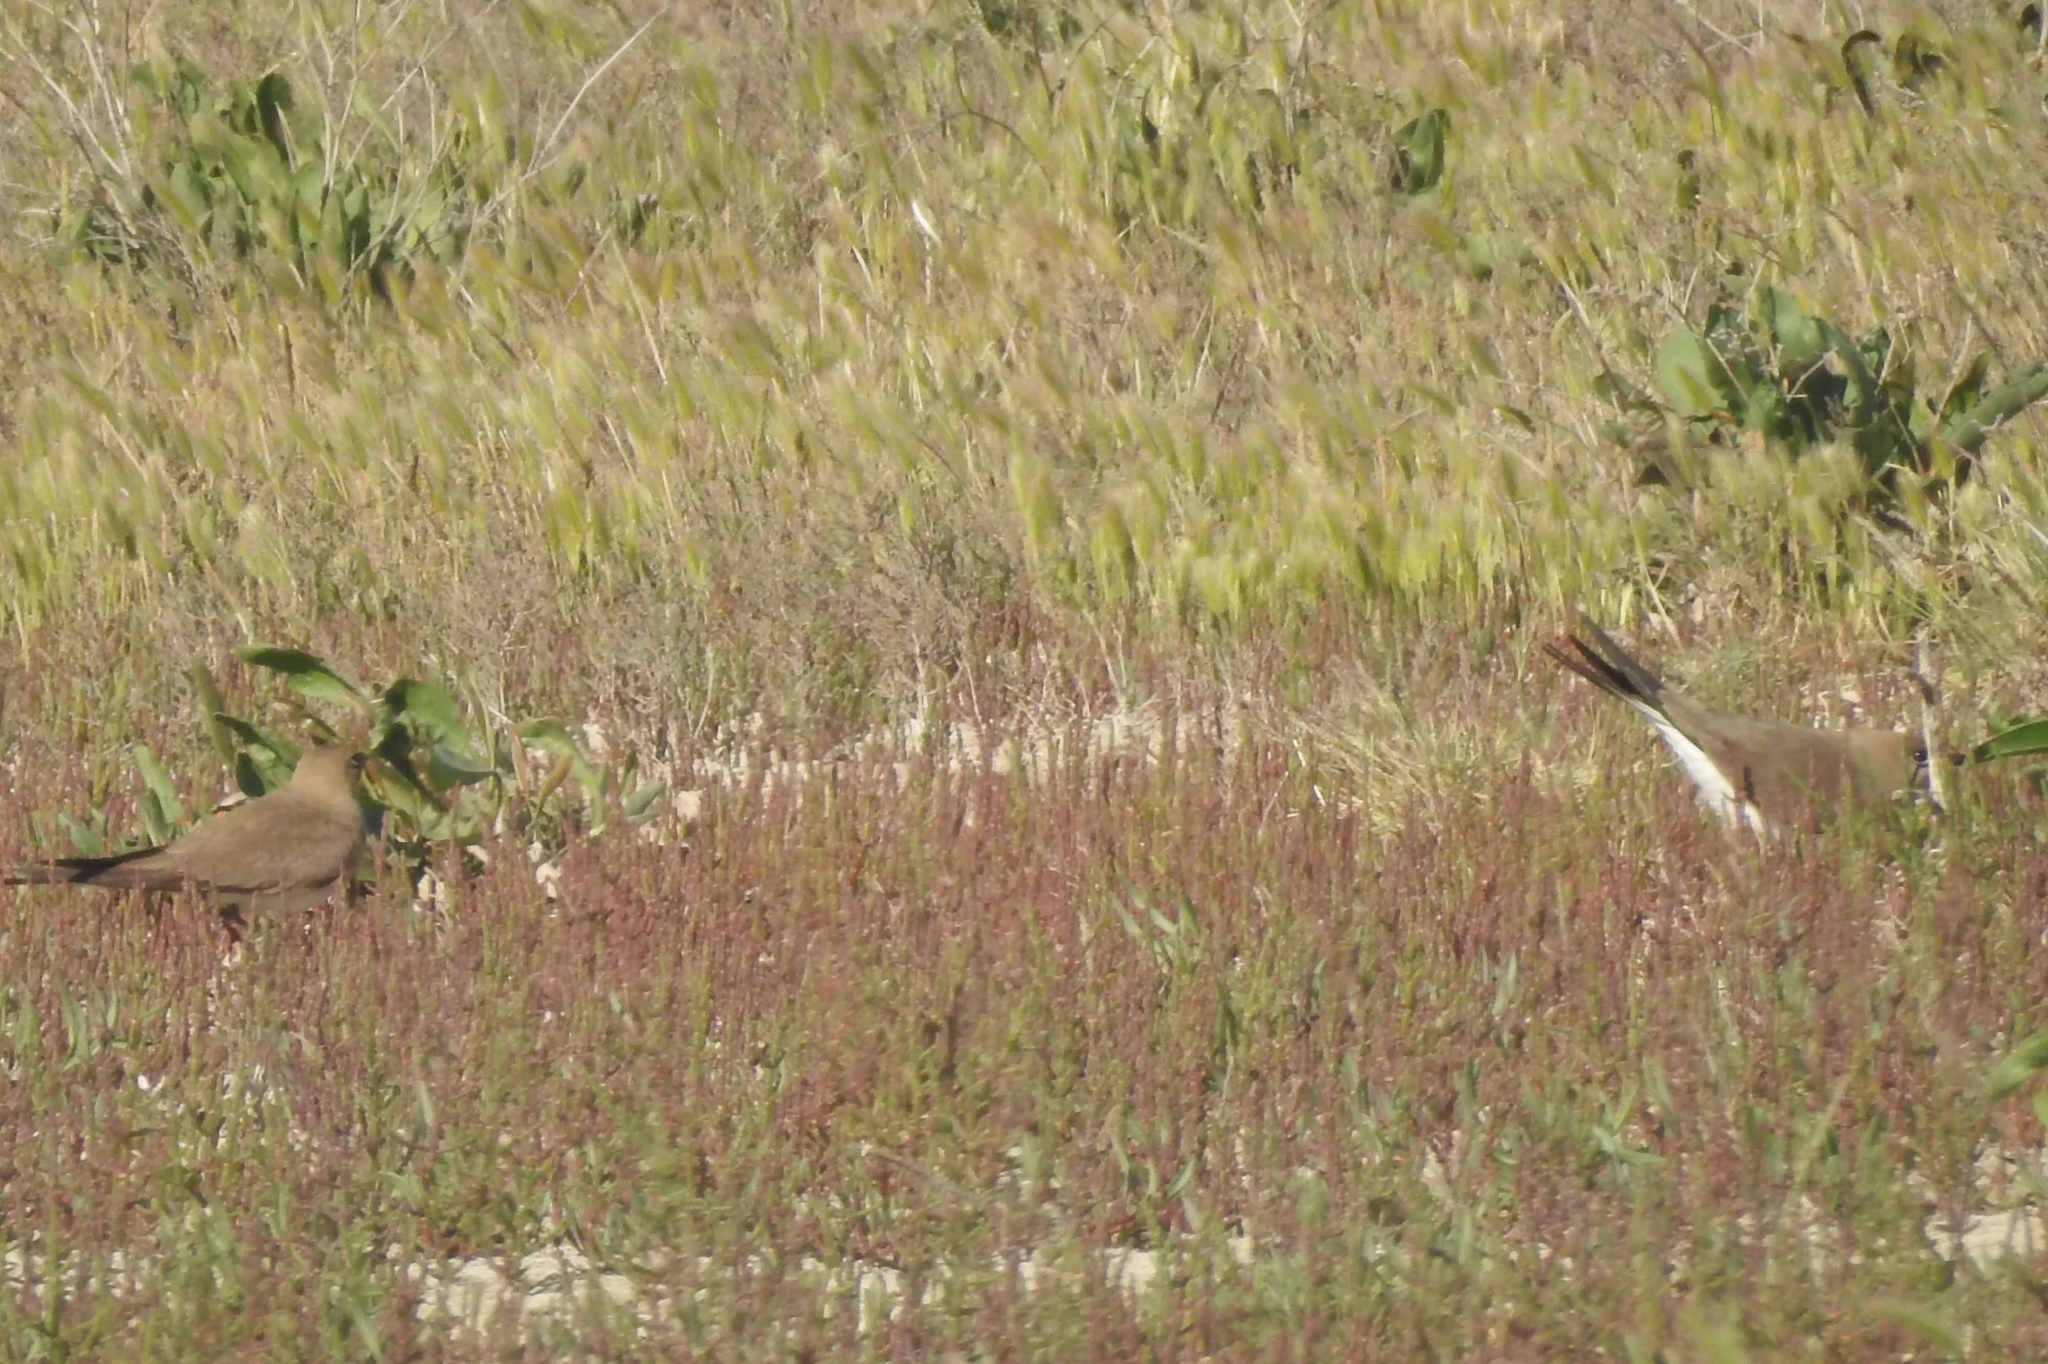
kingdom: Animalia
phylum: Chordata
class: Aves
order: Charadriiformes
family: Glareolidae
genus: Glareola
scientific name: Glareola pratincola
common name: Collared pratincole
